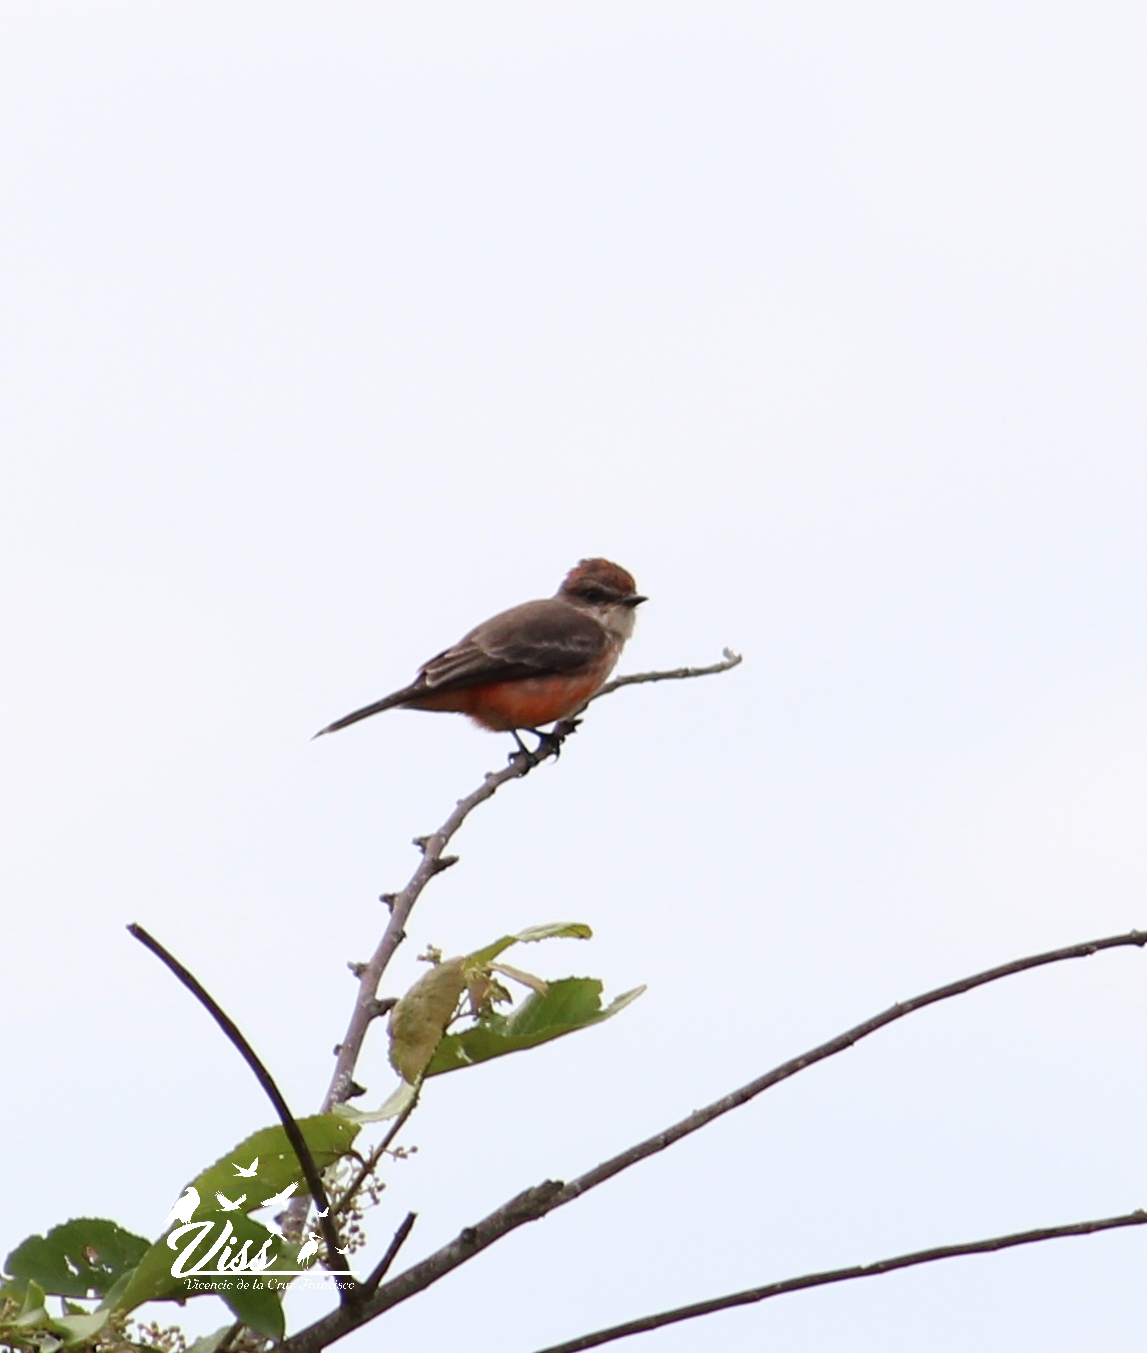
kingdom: Animalia
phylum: Chordata
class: Aves
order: Passeriformes
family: Tyrannidae
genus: Pyrocephalus
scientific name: Pyrocephalus rubinus
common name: Vermilion flycatcher
